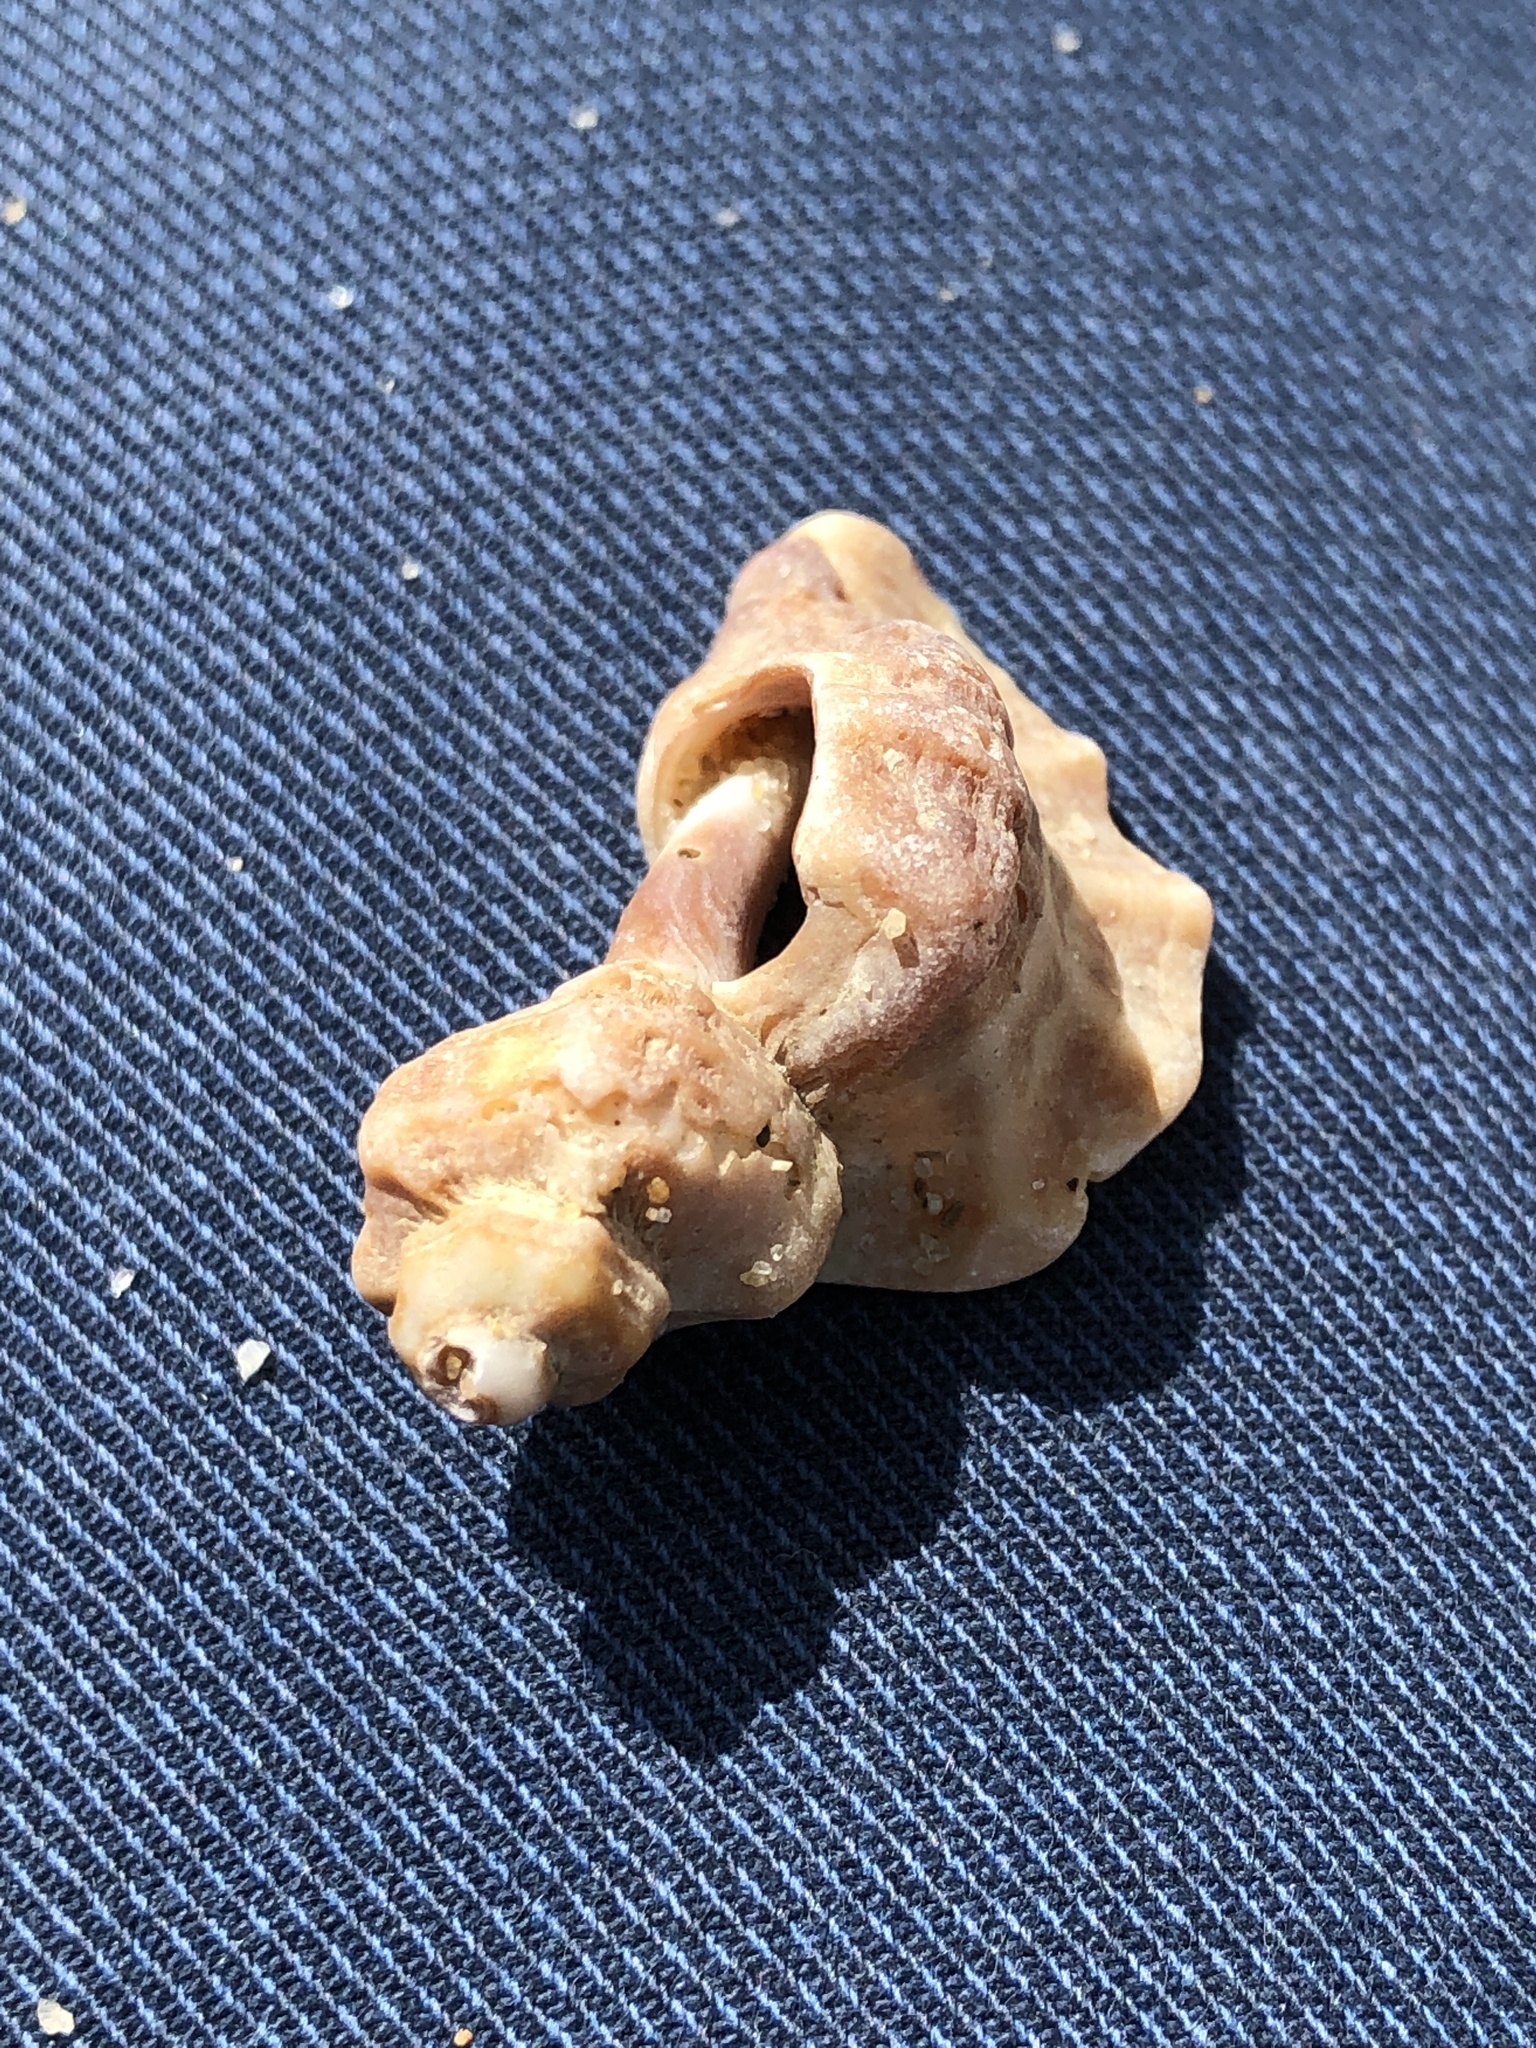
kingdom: Animalia
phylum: Mollusca
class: Gastropoda
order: Neogastropoda
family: Muricidae
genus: Ocinebrellus
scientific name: Ocinebrellus inornatus
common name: Asian drill snail
